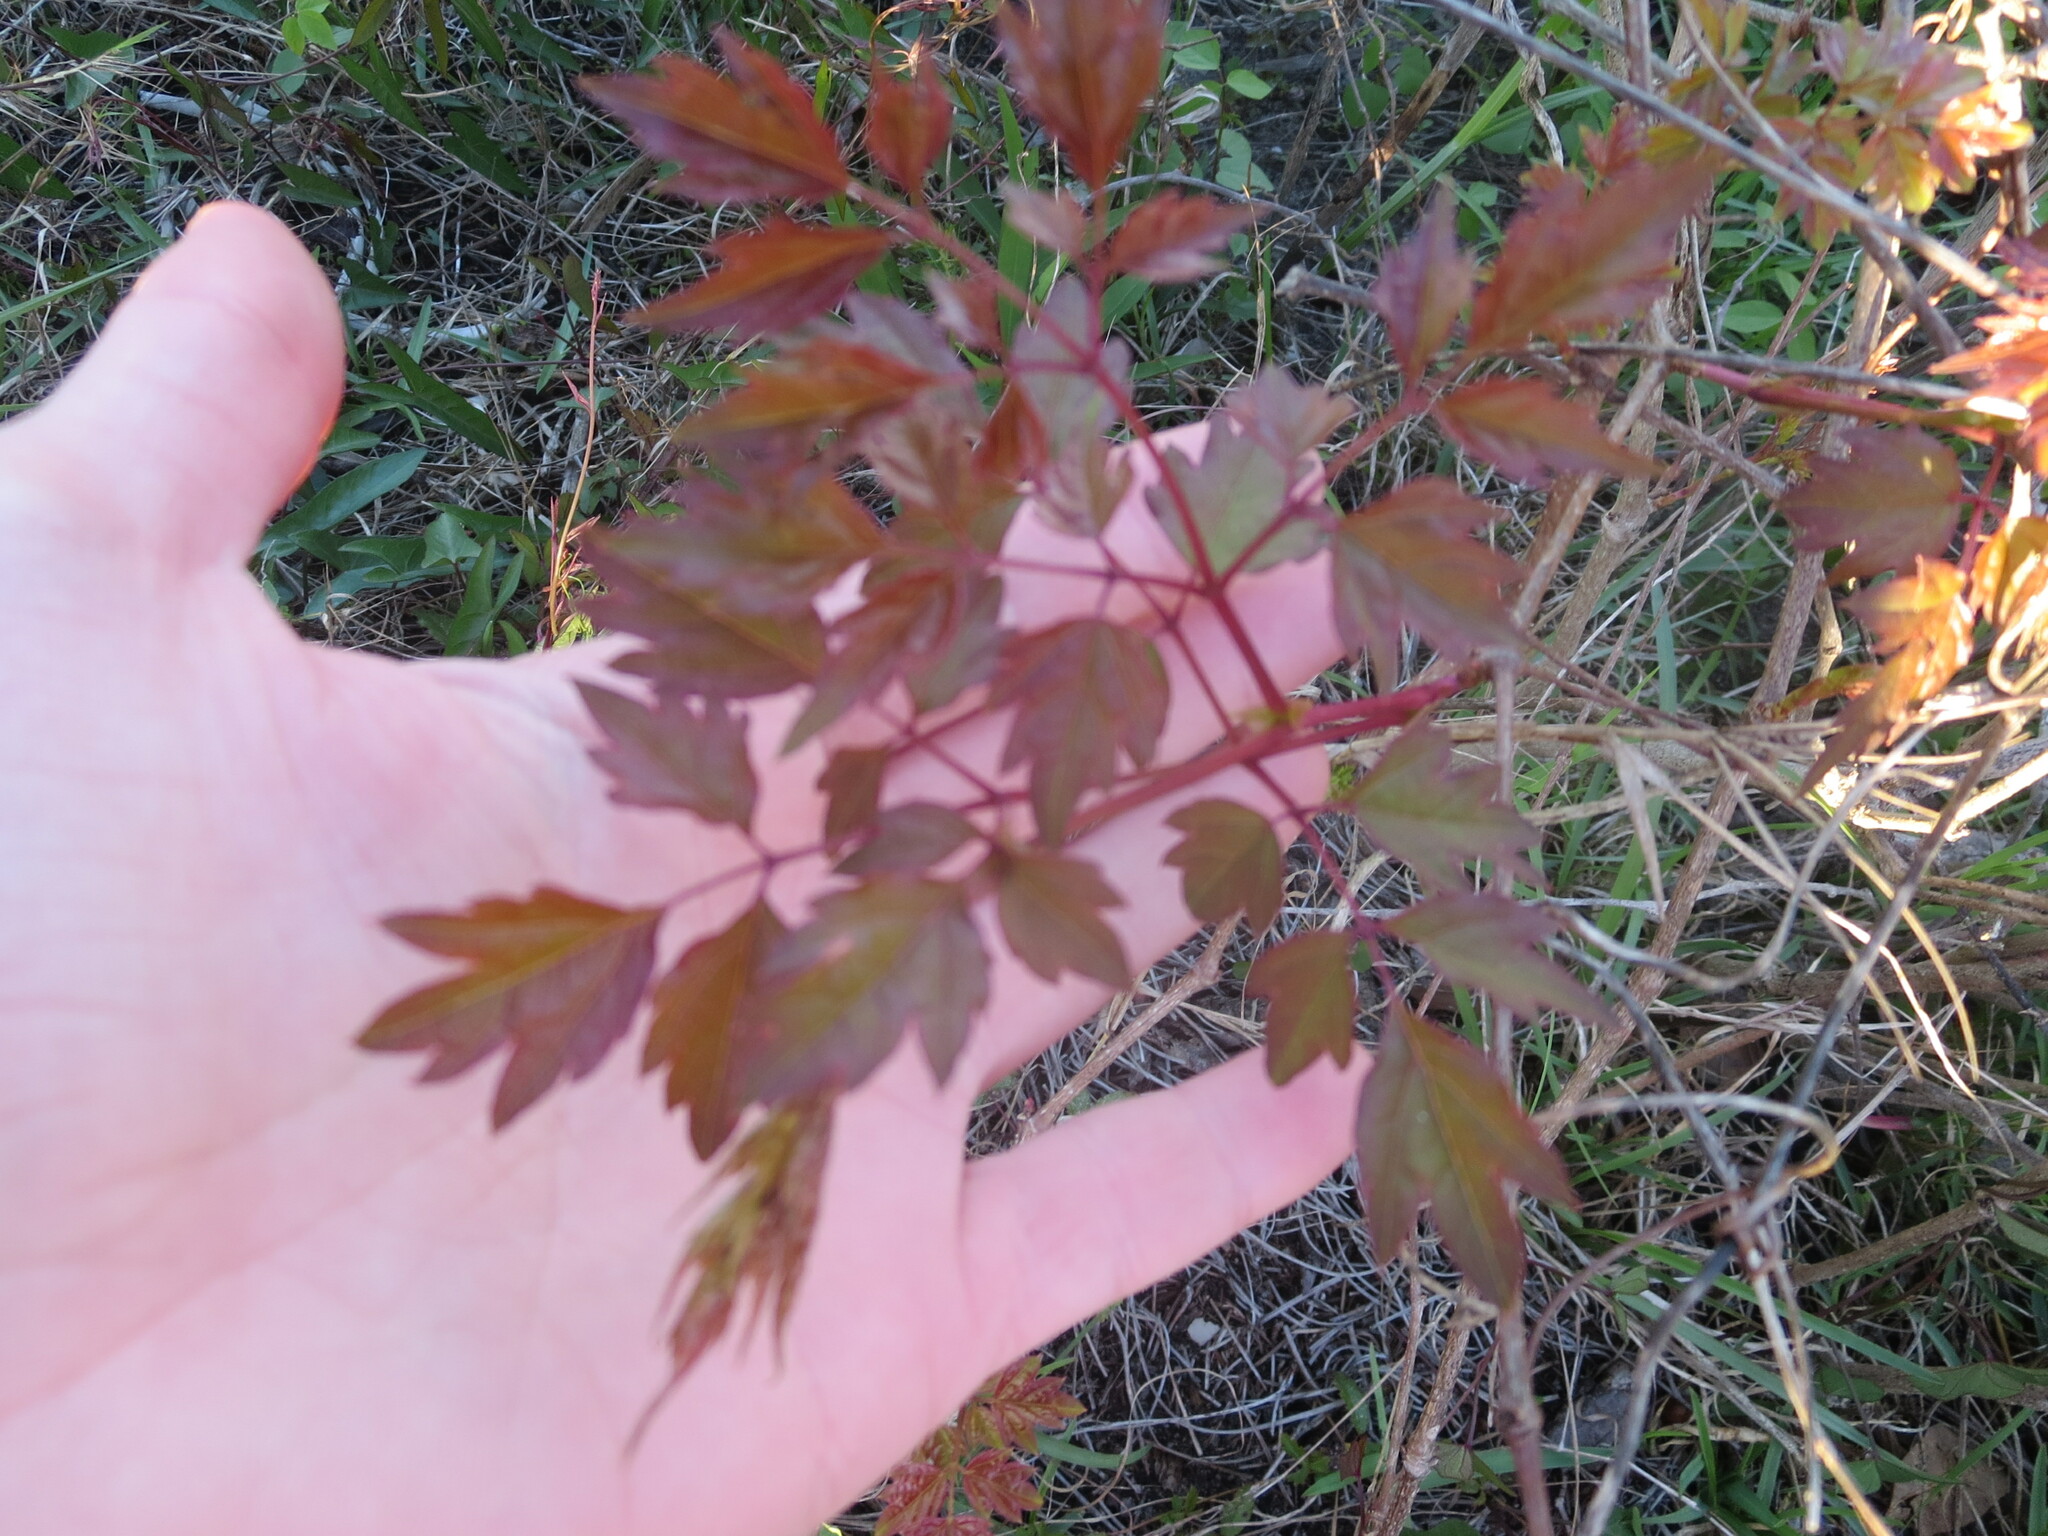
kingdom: Plantae
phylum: Tracheophyta
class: Magnoliopsida
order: Vitales
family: Vitaceae
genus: Nekemias
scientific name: Nekemias arborea
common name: Peppervine
